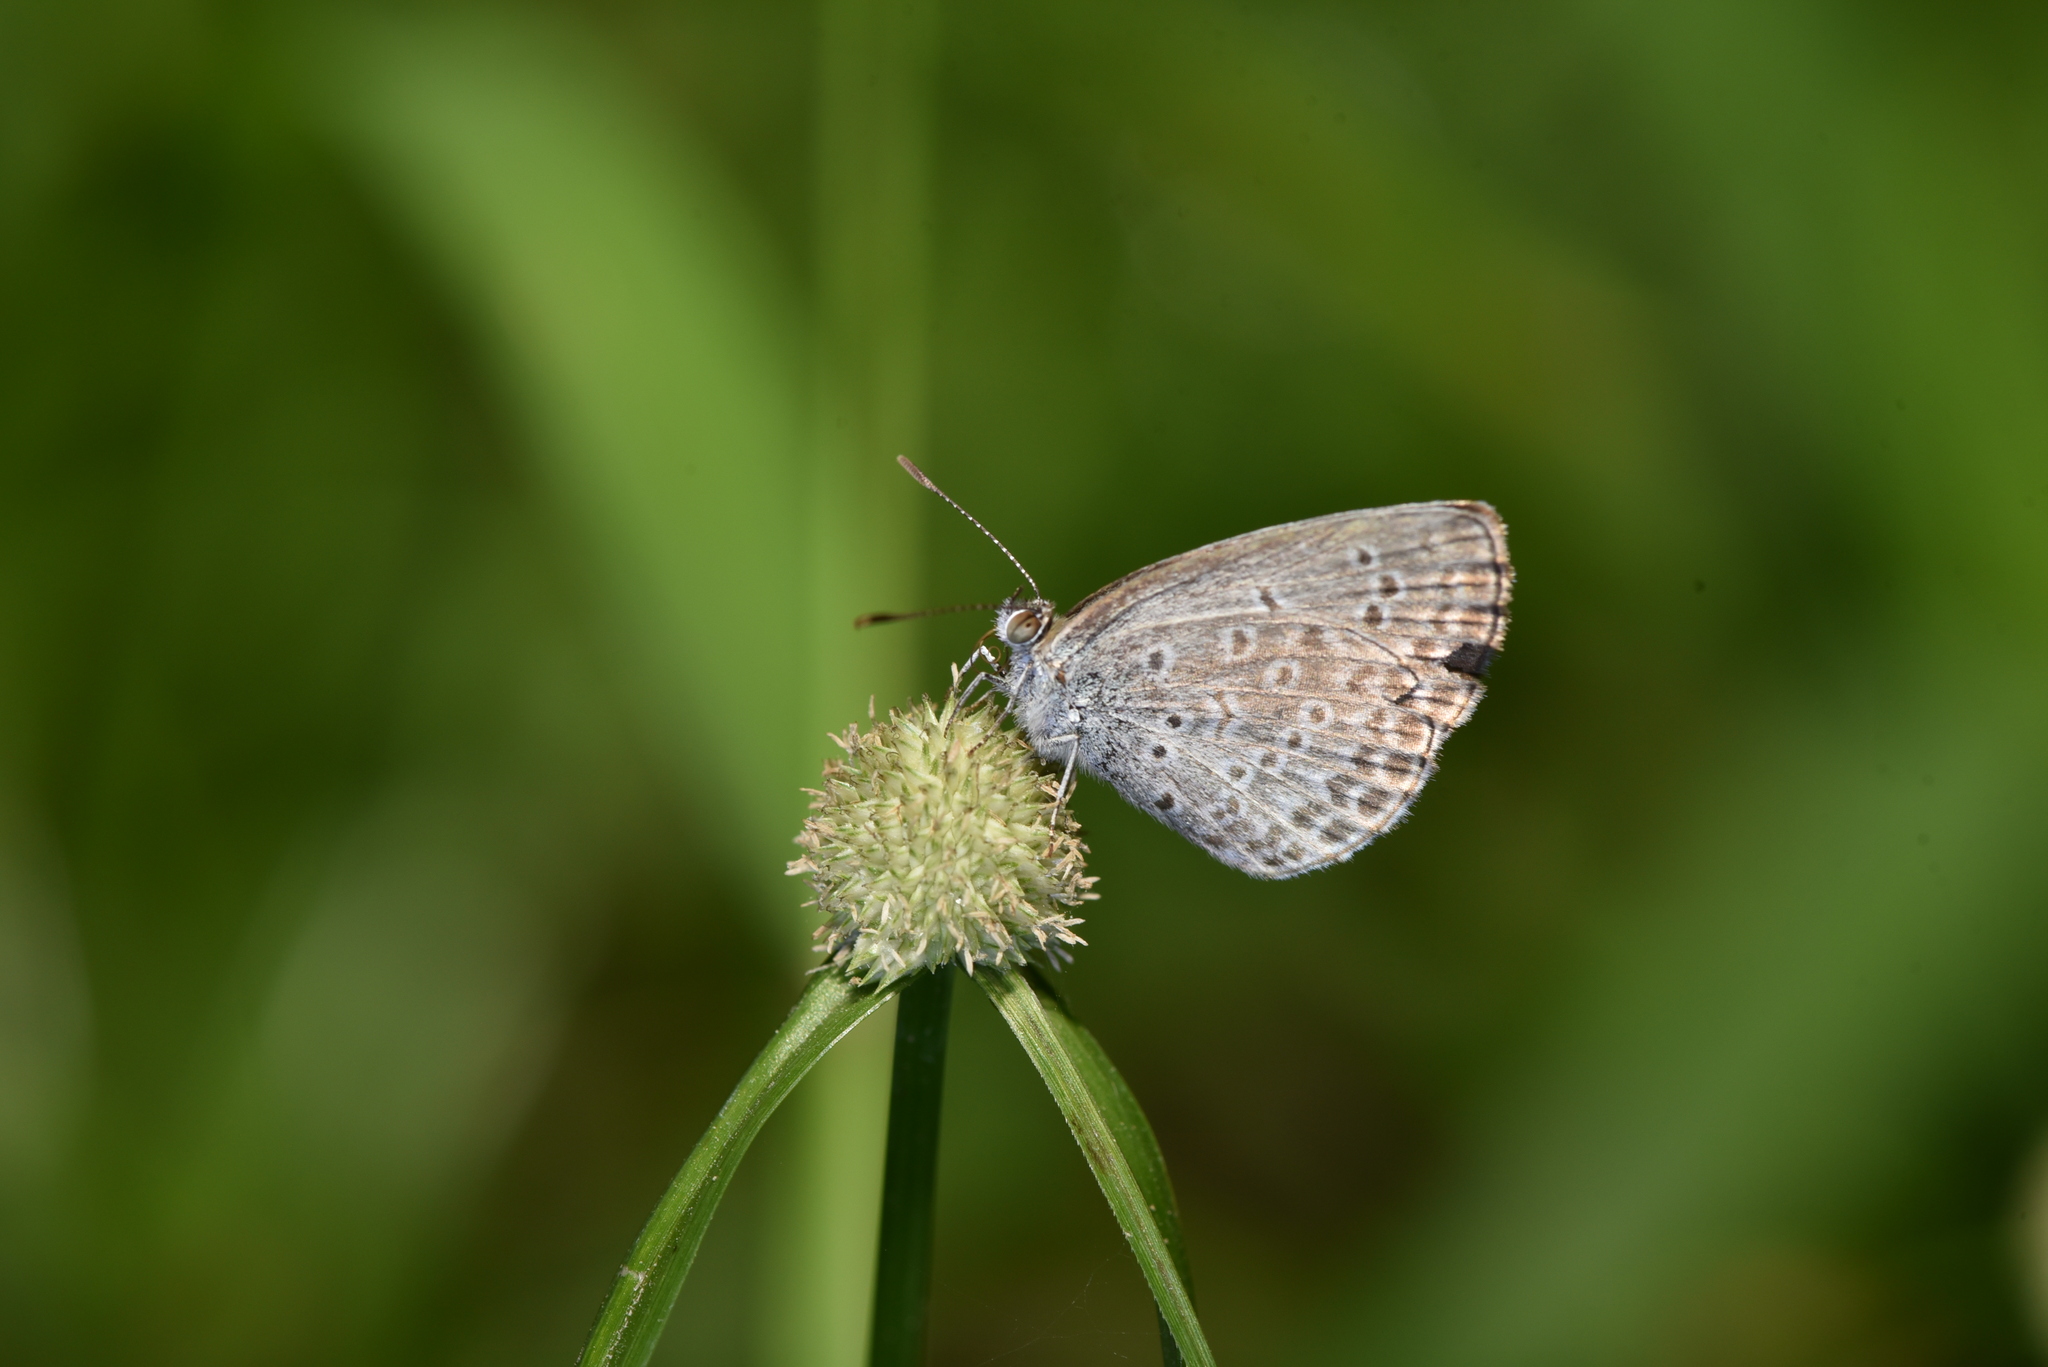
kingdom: Animalia
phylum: Arthropoda
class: Insecta
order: Lepidoptera
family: Lycaenidae
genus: Pseudozizeeria
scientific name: Pseudozizeeria maha
